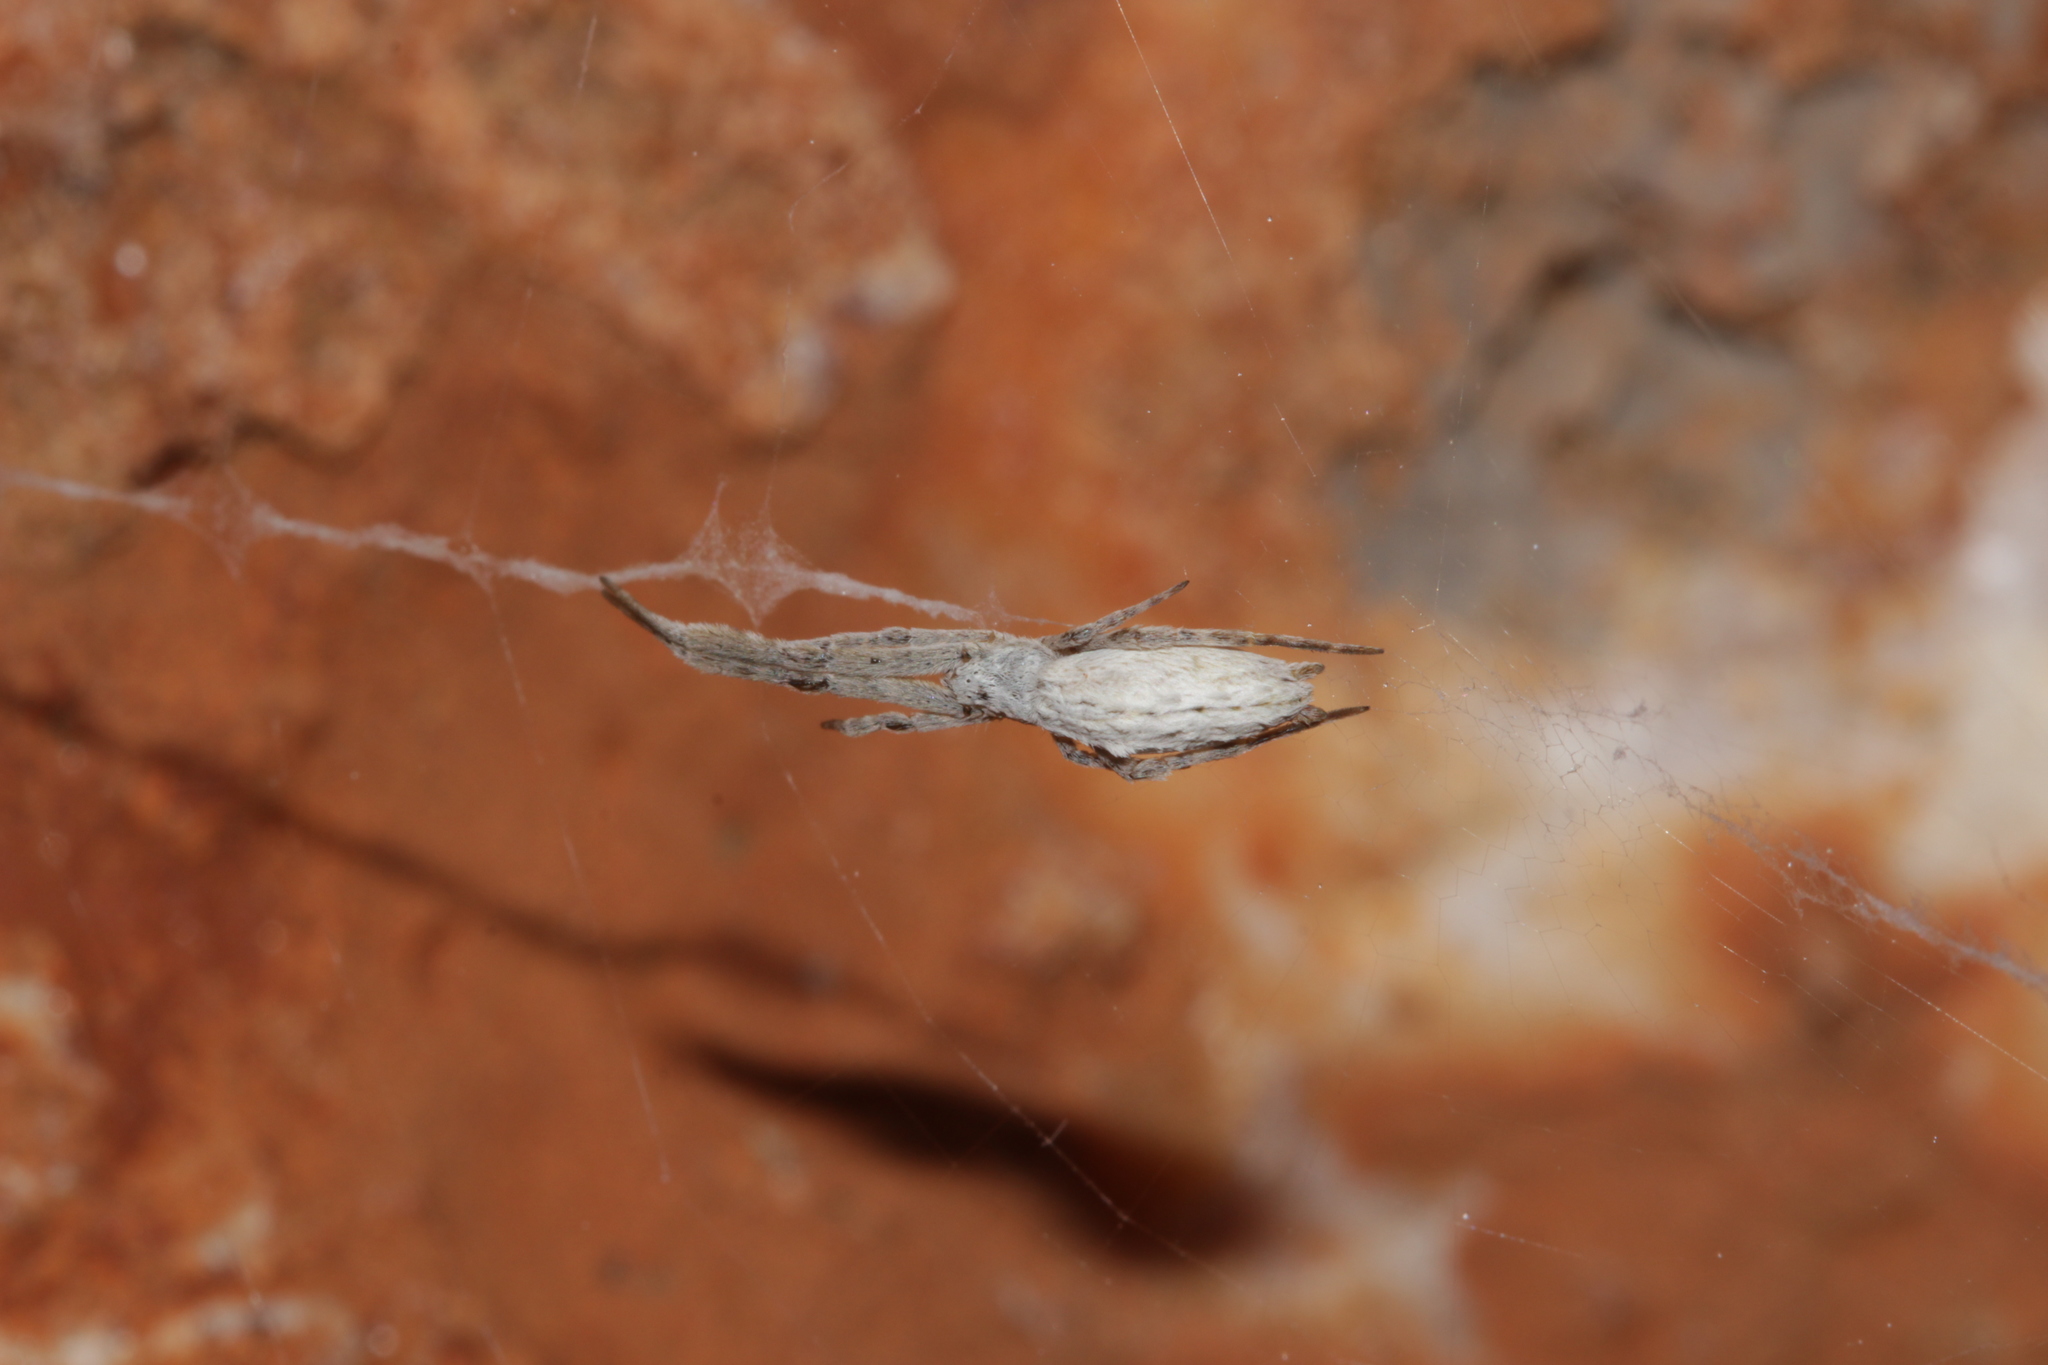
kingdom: Animalia
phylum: Arthropoda
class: Arachnida
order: Araneae
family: Uloboridae
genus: Uloborus
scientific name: Uloborus walckenaerius
